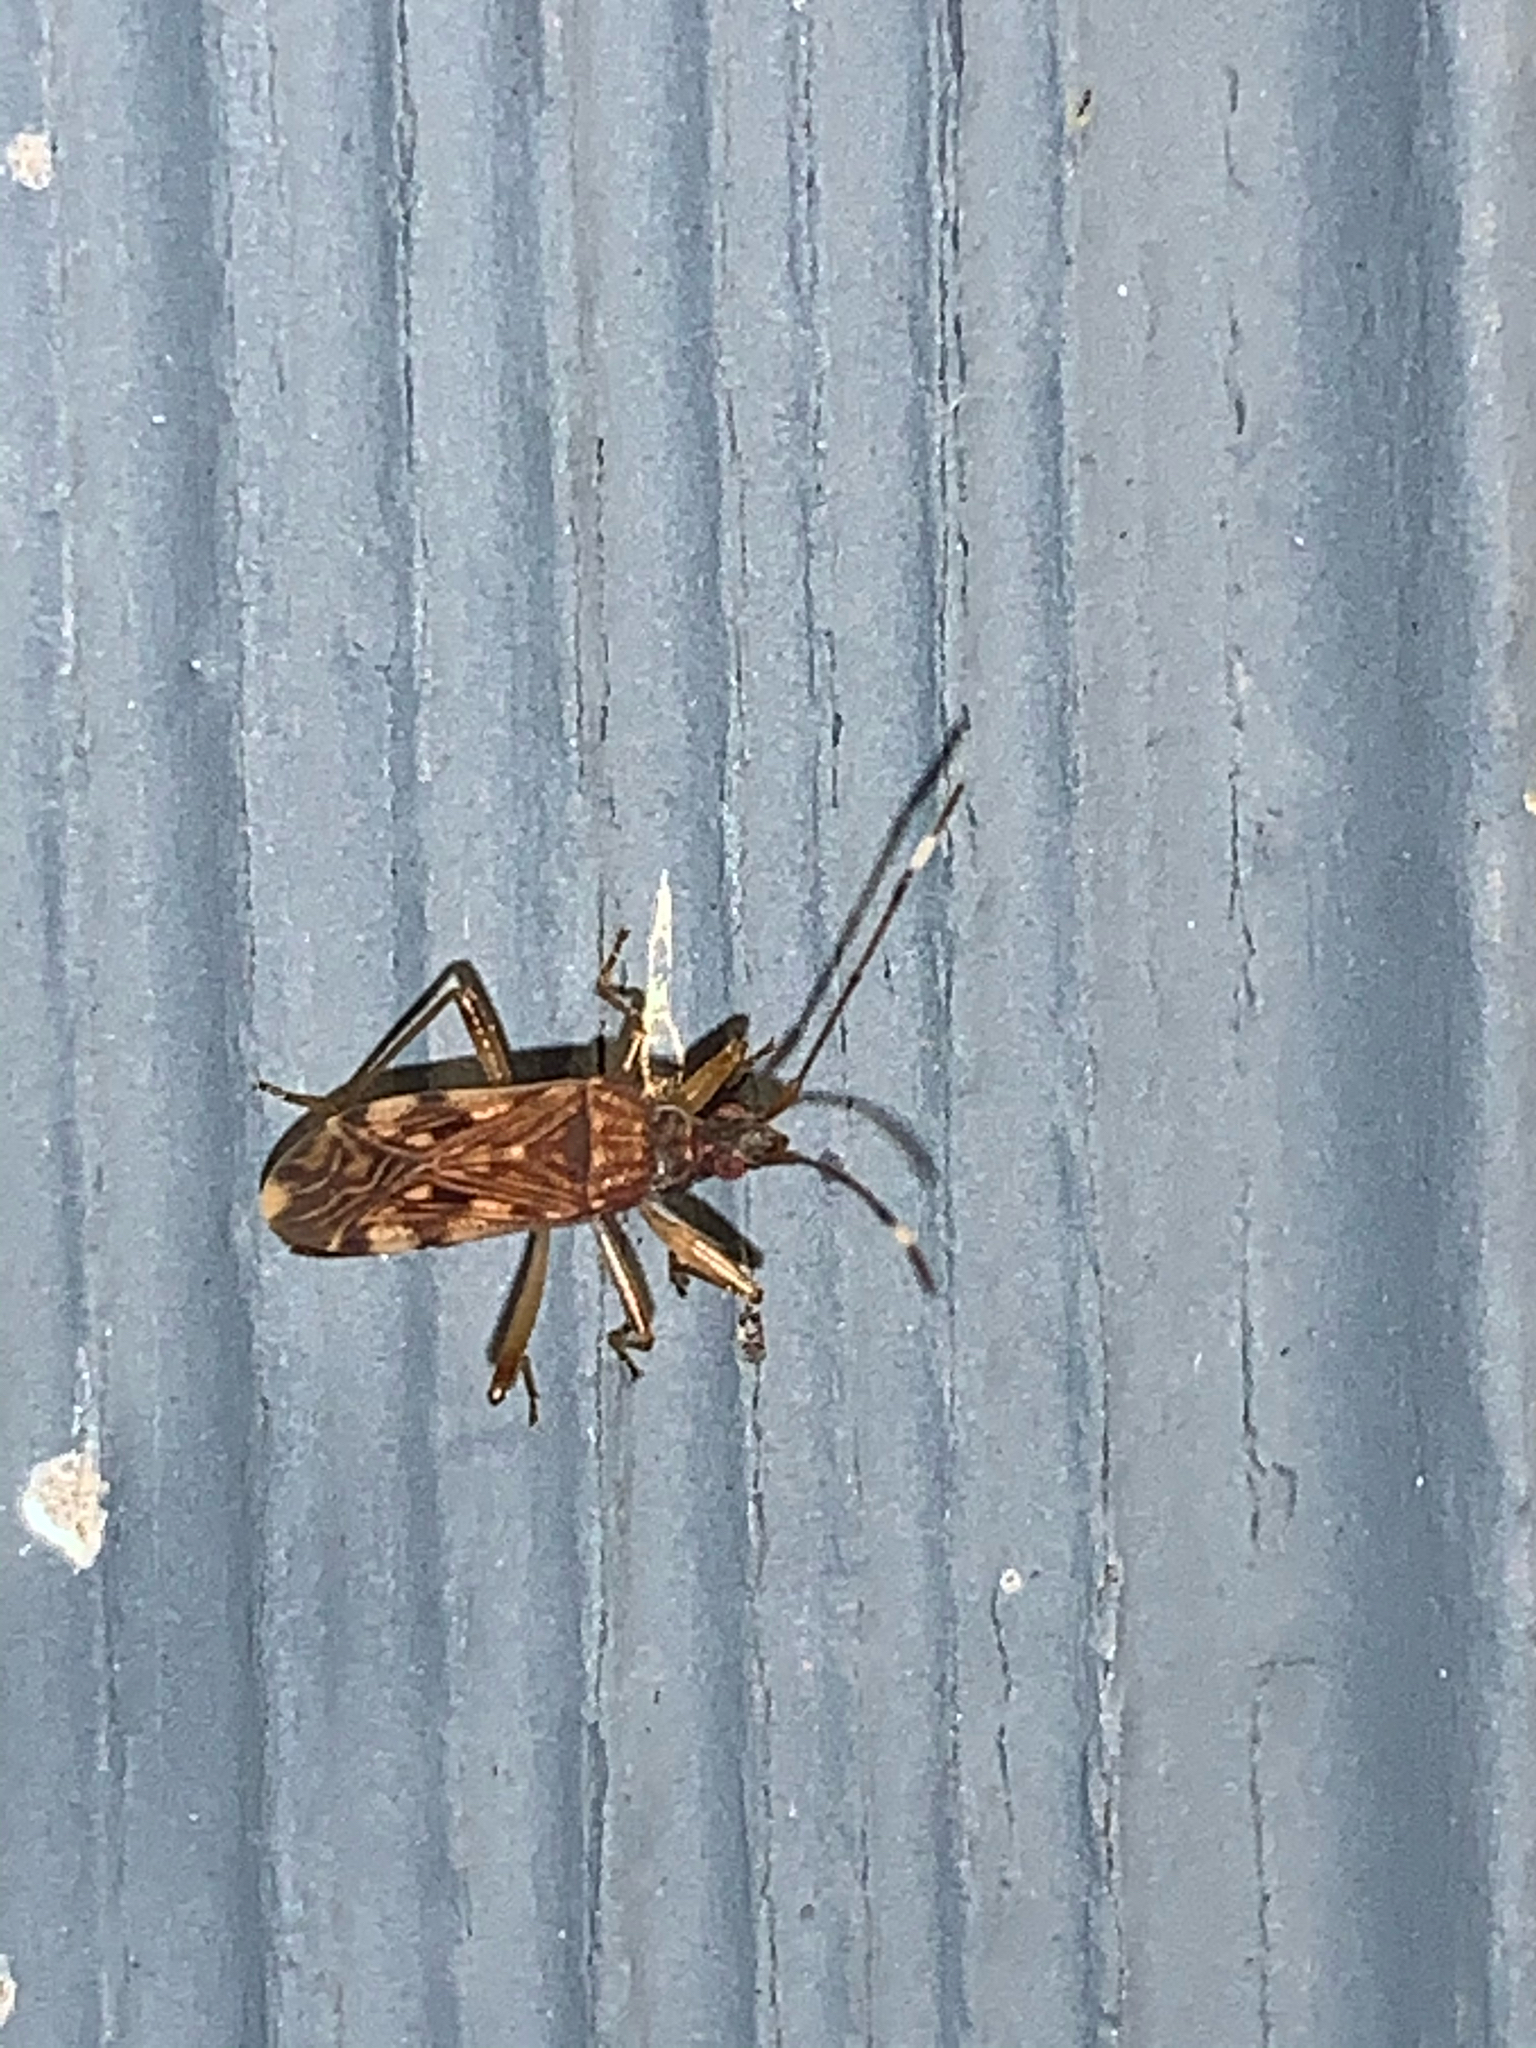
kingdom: Animalia
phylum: Arthropoda
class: Insecta
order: Hemiptera
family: Rhyparochromidae
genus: Ozophora
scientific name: Ozophora picturata
